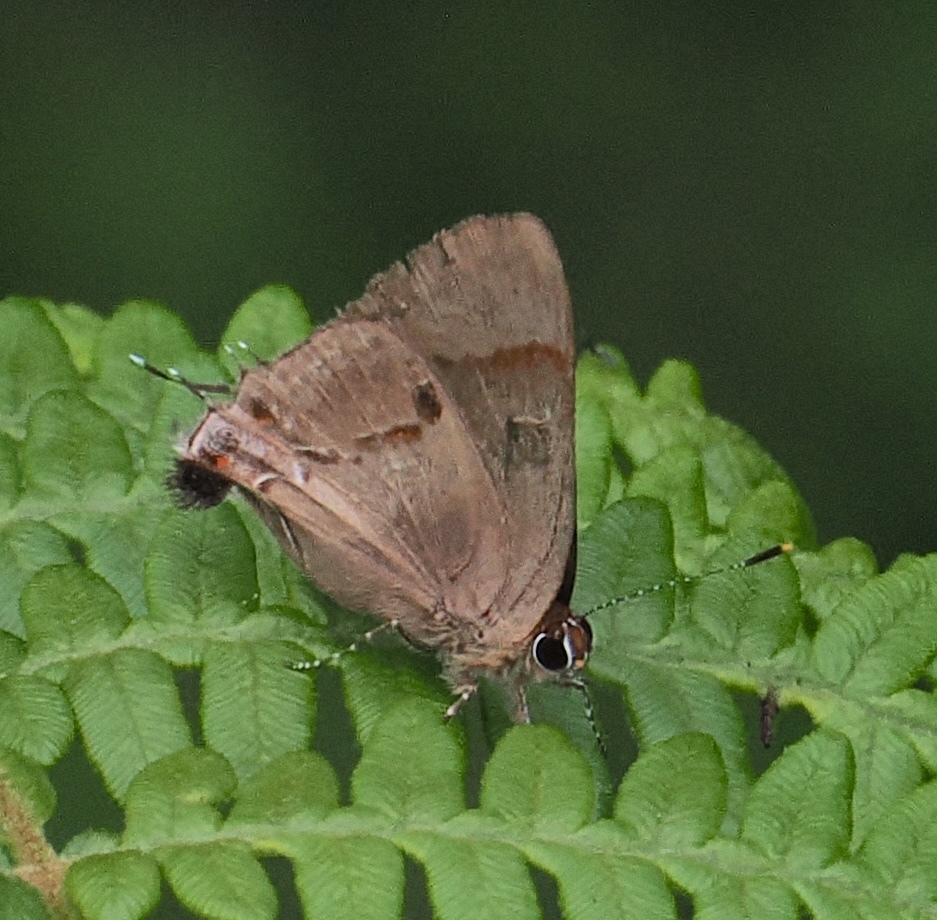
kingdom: Animalia
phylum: Arthropoda
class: Insecta
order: Lepidoptera
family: Lycaenidae
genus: Thecla
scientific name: Thecla badaca
